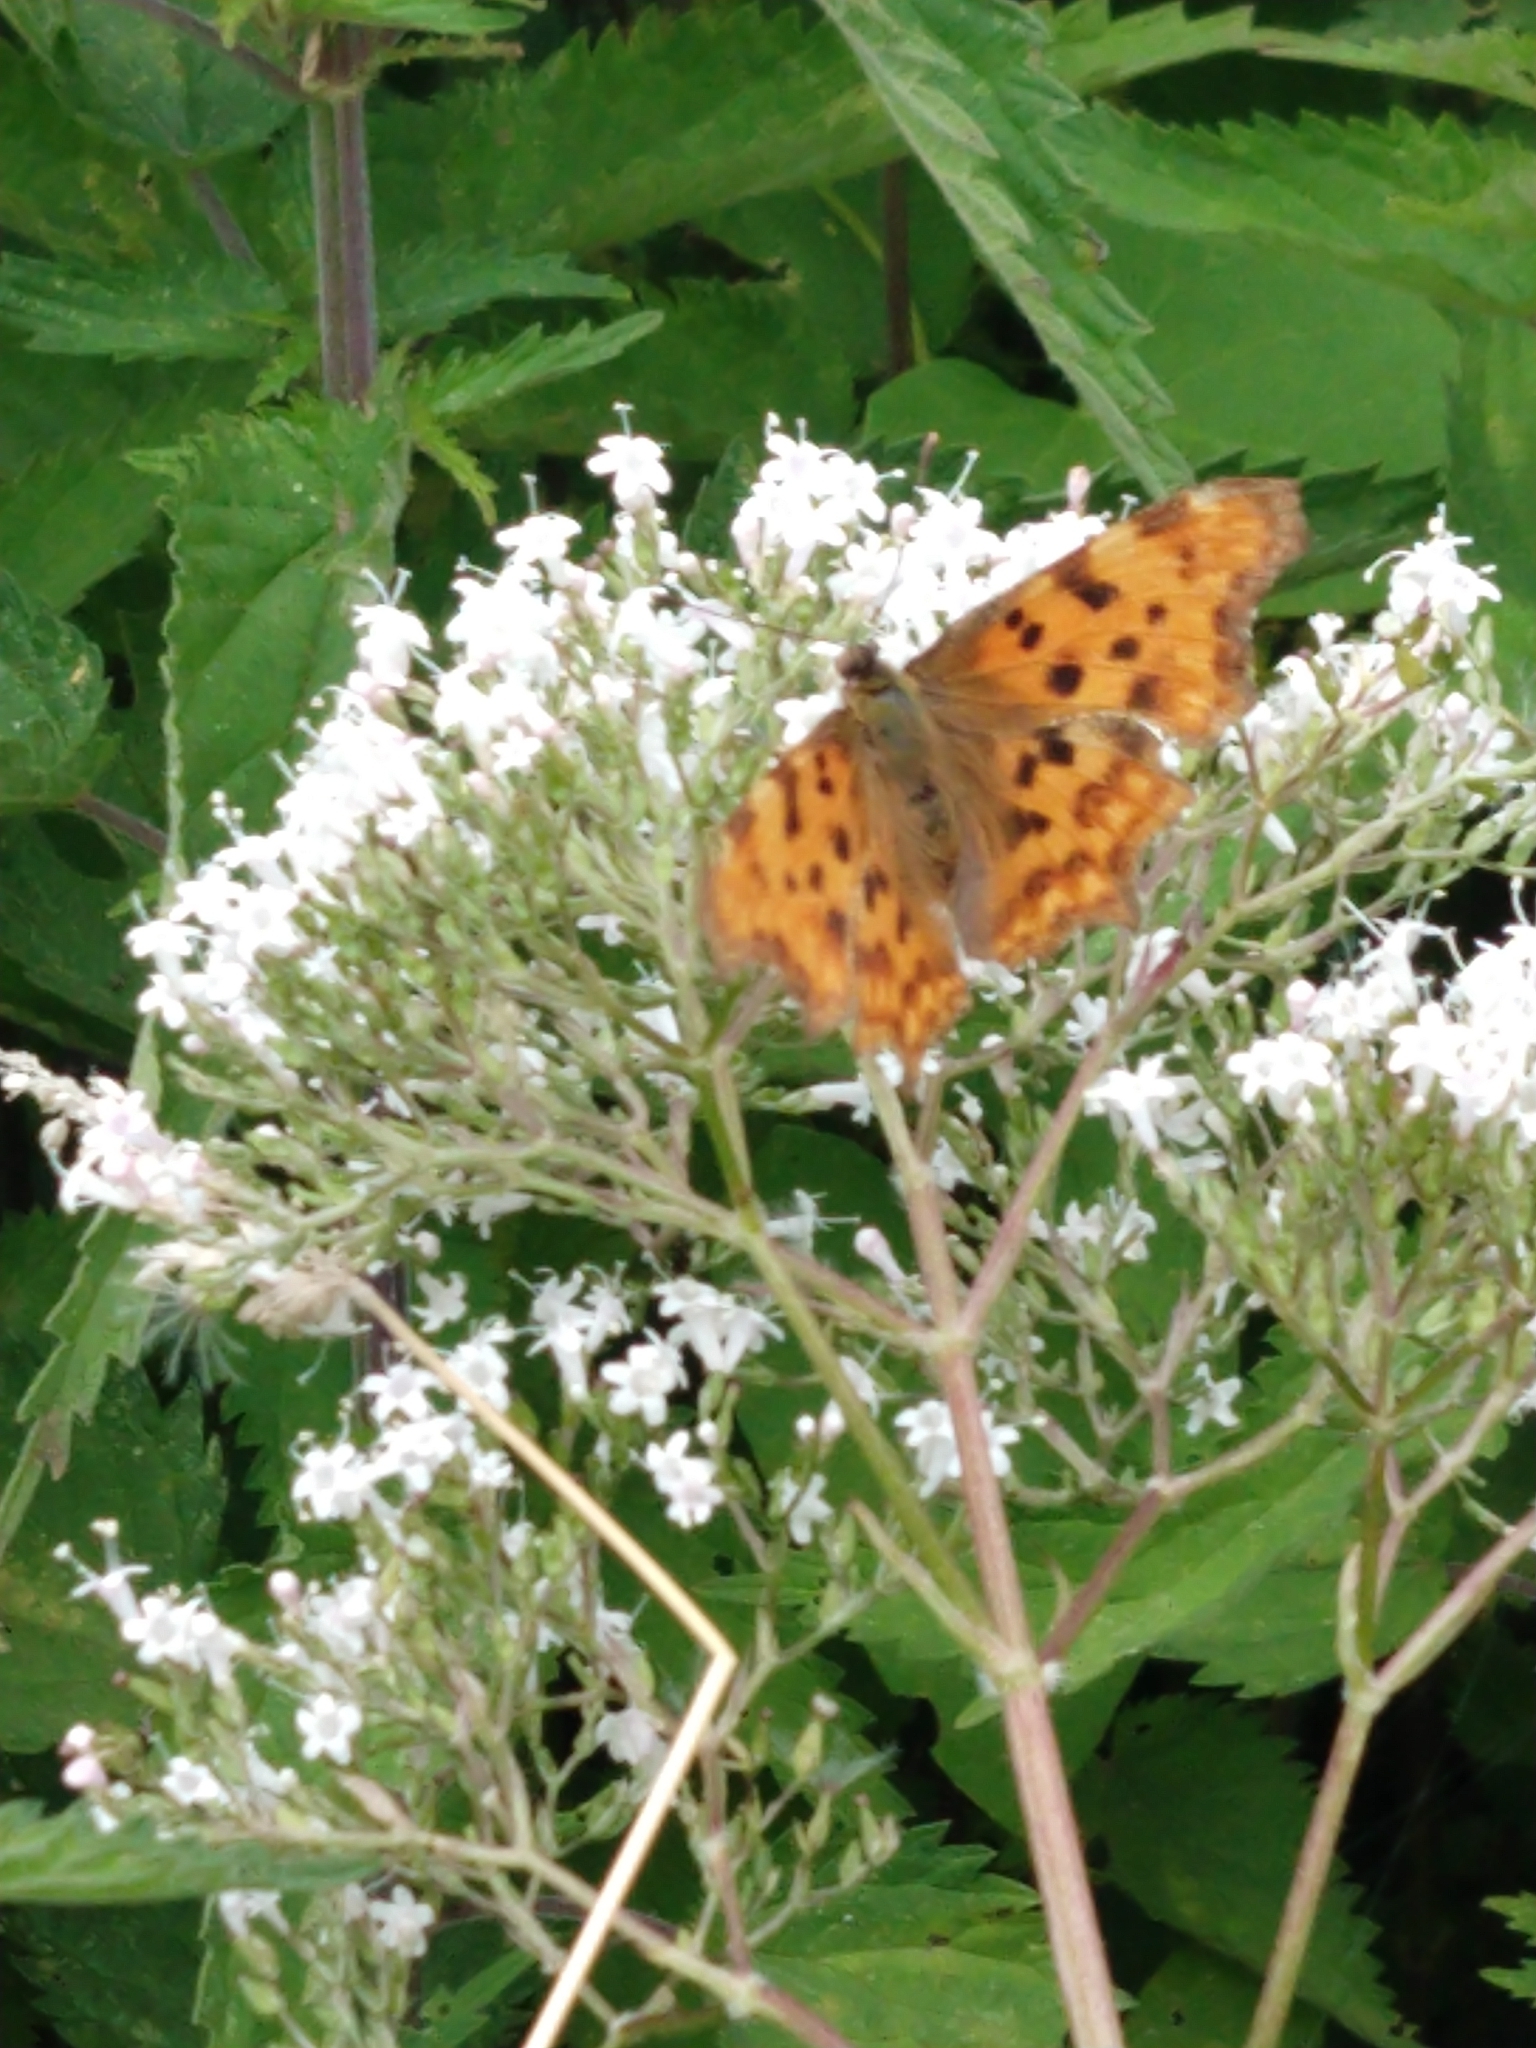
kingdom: Animalia
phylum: Arthropoda
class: Insecta
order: Lepidoptera
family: Nymphalidae
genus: Polygonia
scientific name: Polygonia c-album
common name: Comma
